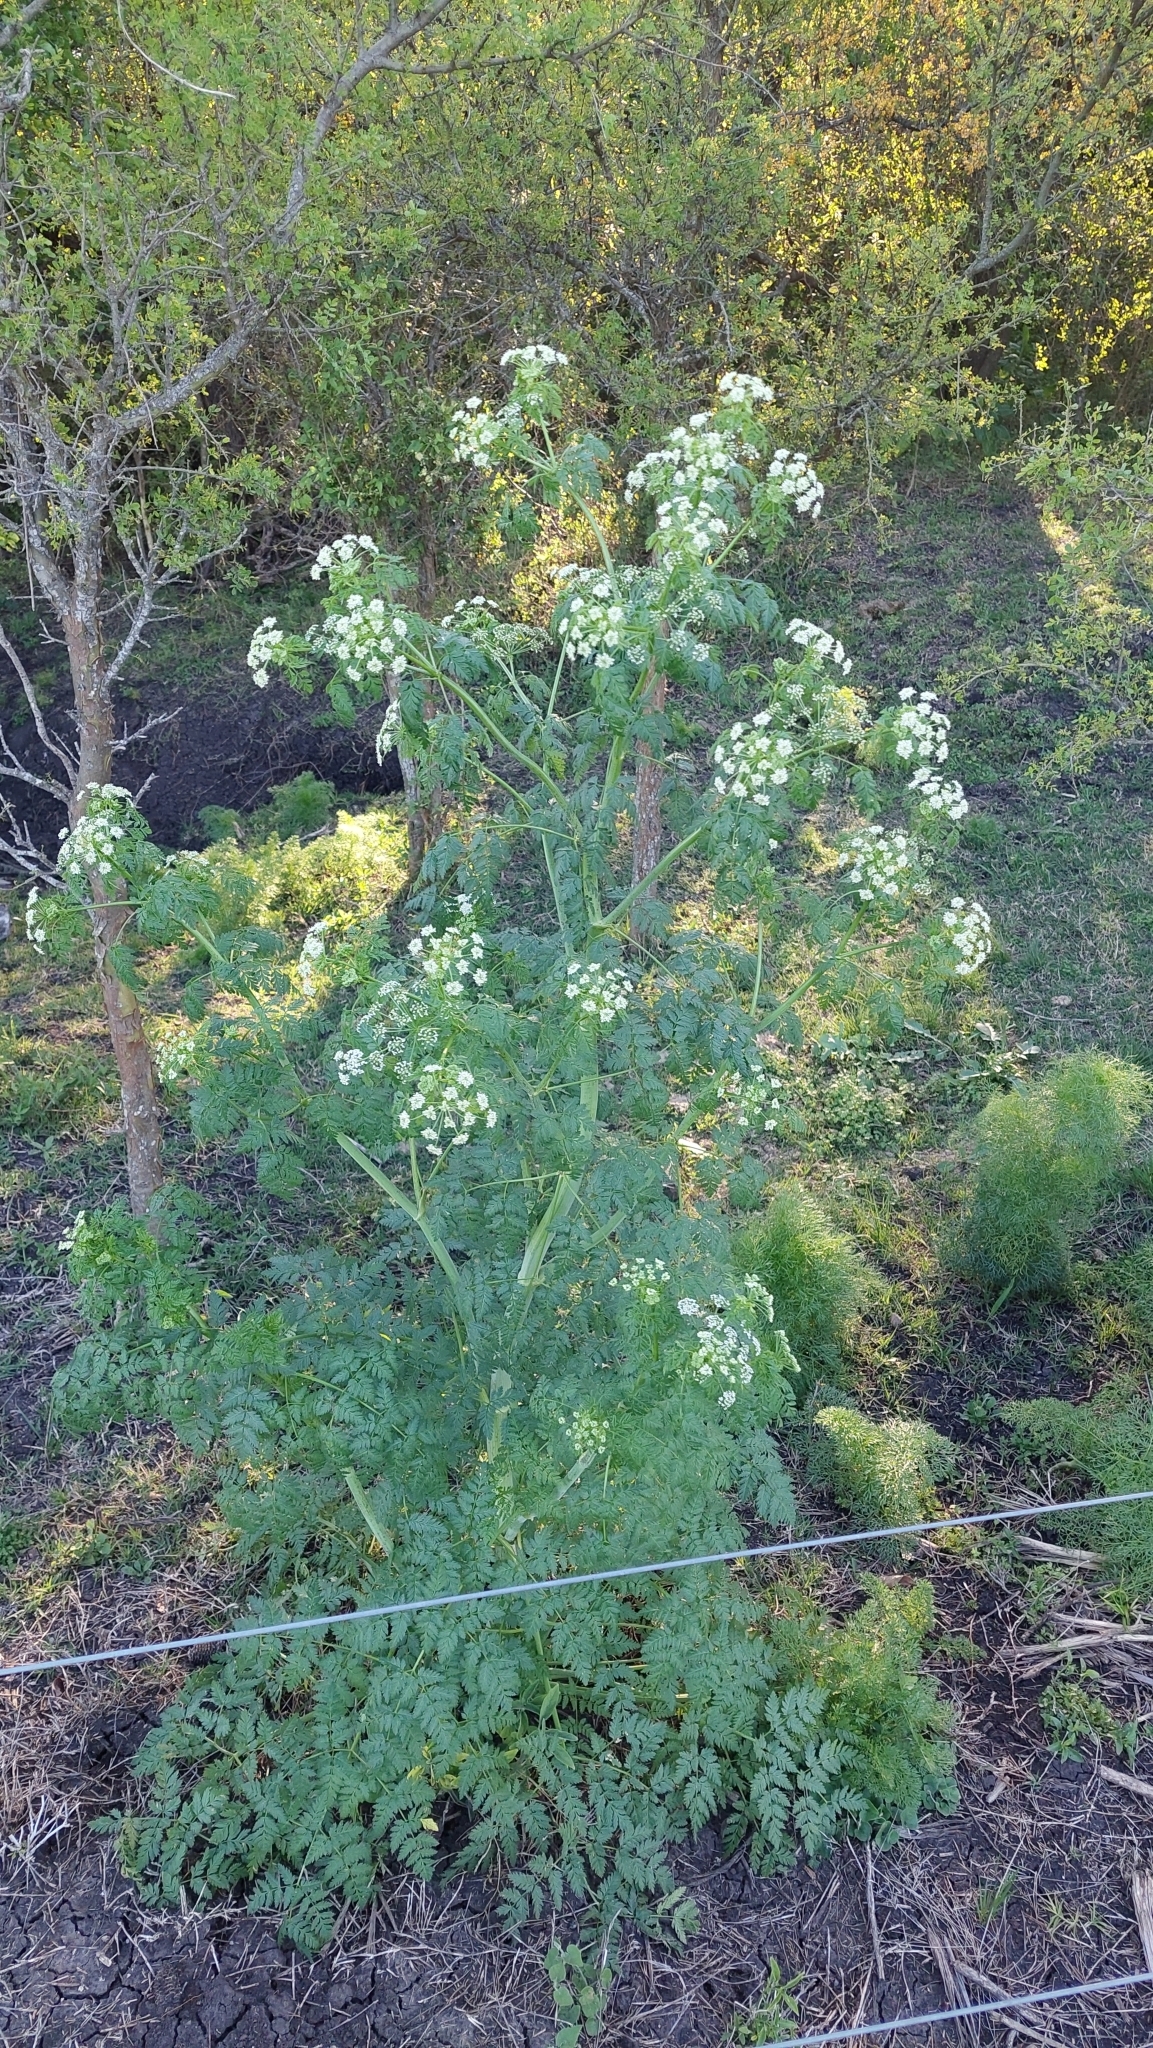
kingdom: Plantae
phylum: Tracheophyta
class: Magnoliopsida
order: Apiales
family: Apiaceae
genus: Conium
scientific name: Conium maculatum
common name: Hemlock
